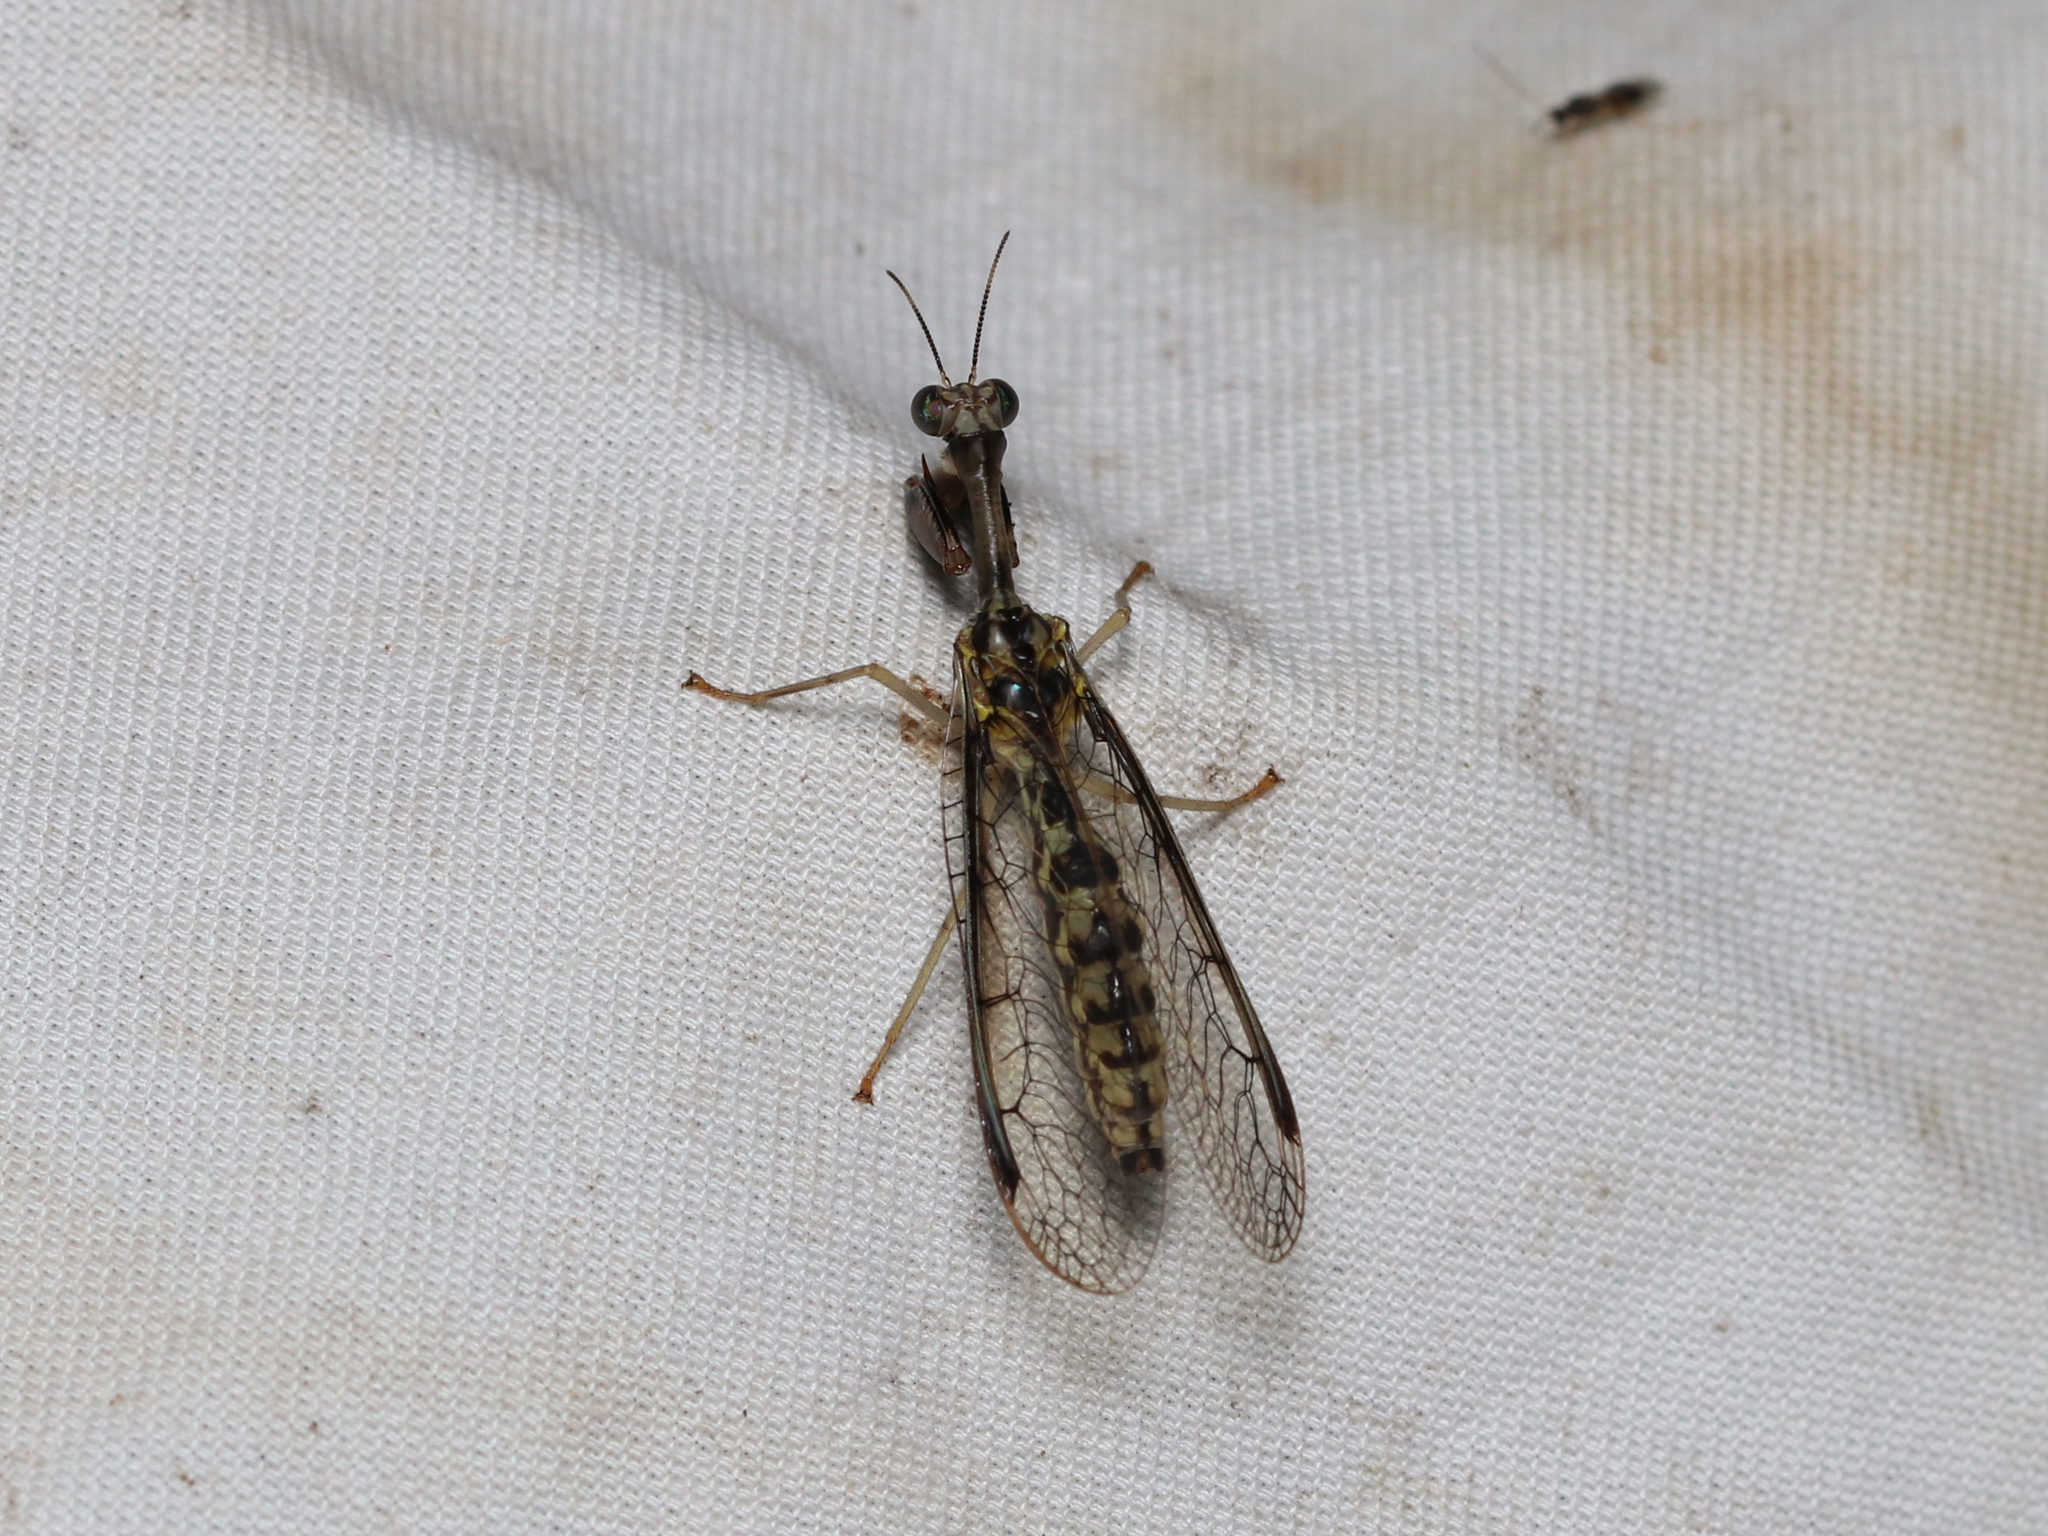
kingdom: Animalia
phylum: Arthropoda
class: Insecta
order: Neuroptera
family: Mantispidae
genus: Dicromantispa
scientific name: Dicromantispa sayi
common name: Say's mantidfly
